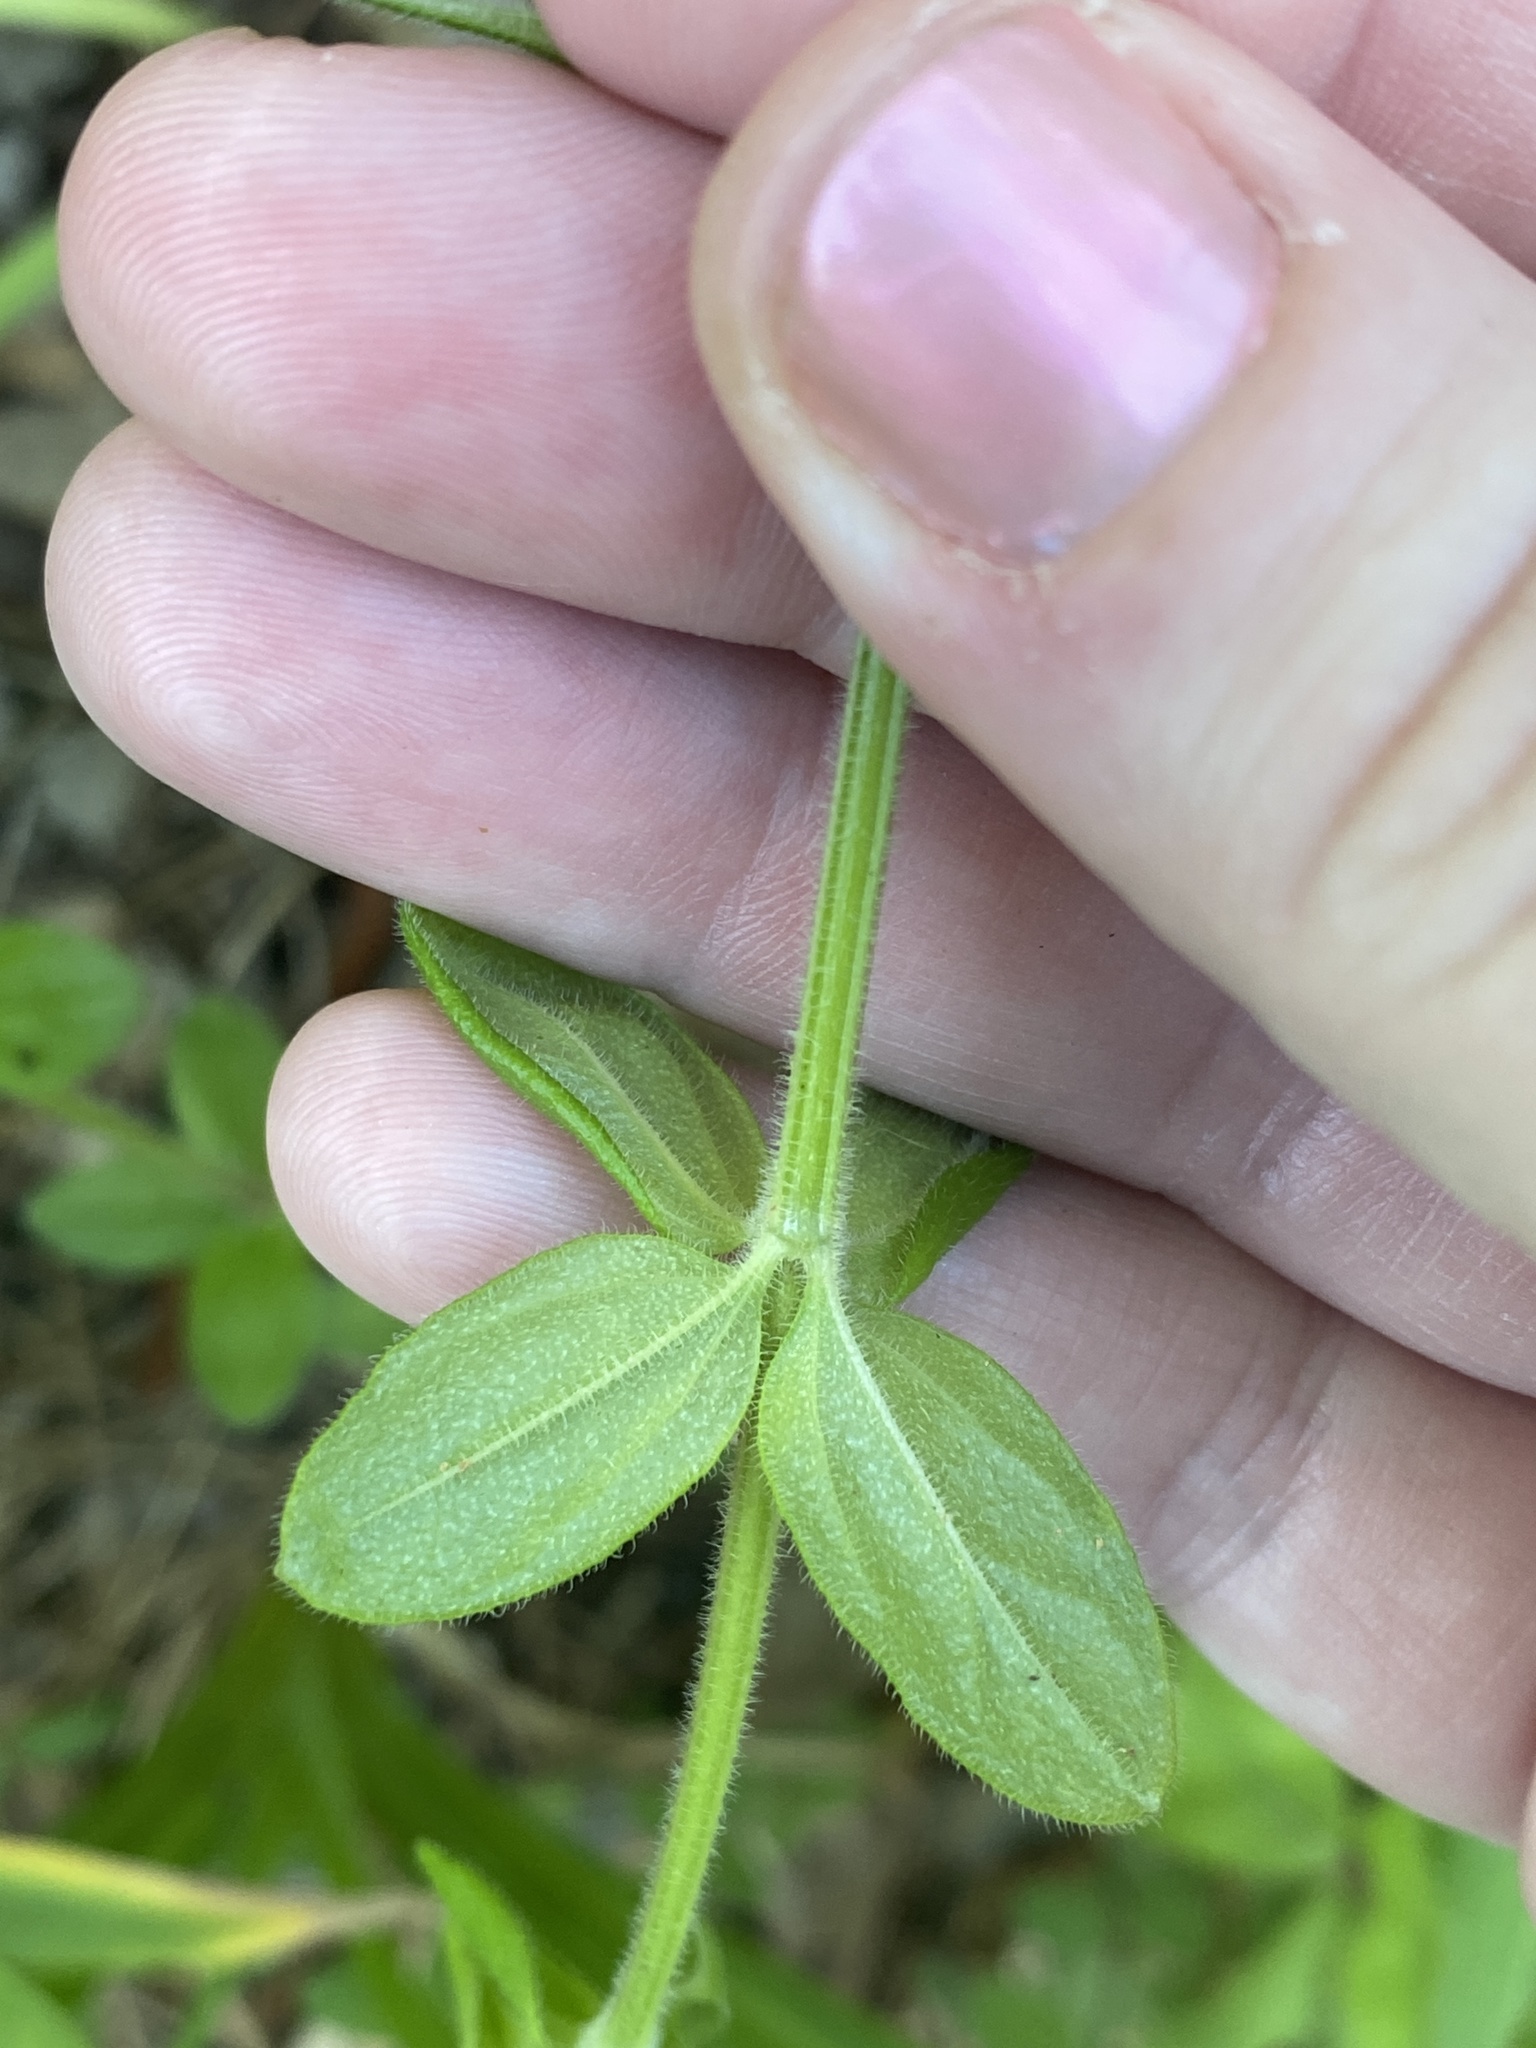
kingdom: Plantae
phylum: Tracheophyta
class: Magnoliopsida
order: Gentianales
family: Rubiaceae
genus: Galium
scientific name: Galium pilosum
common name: Hairy bedstraw
